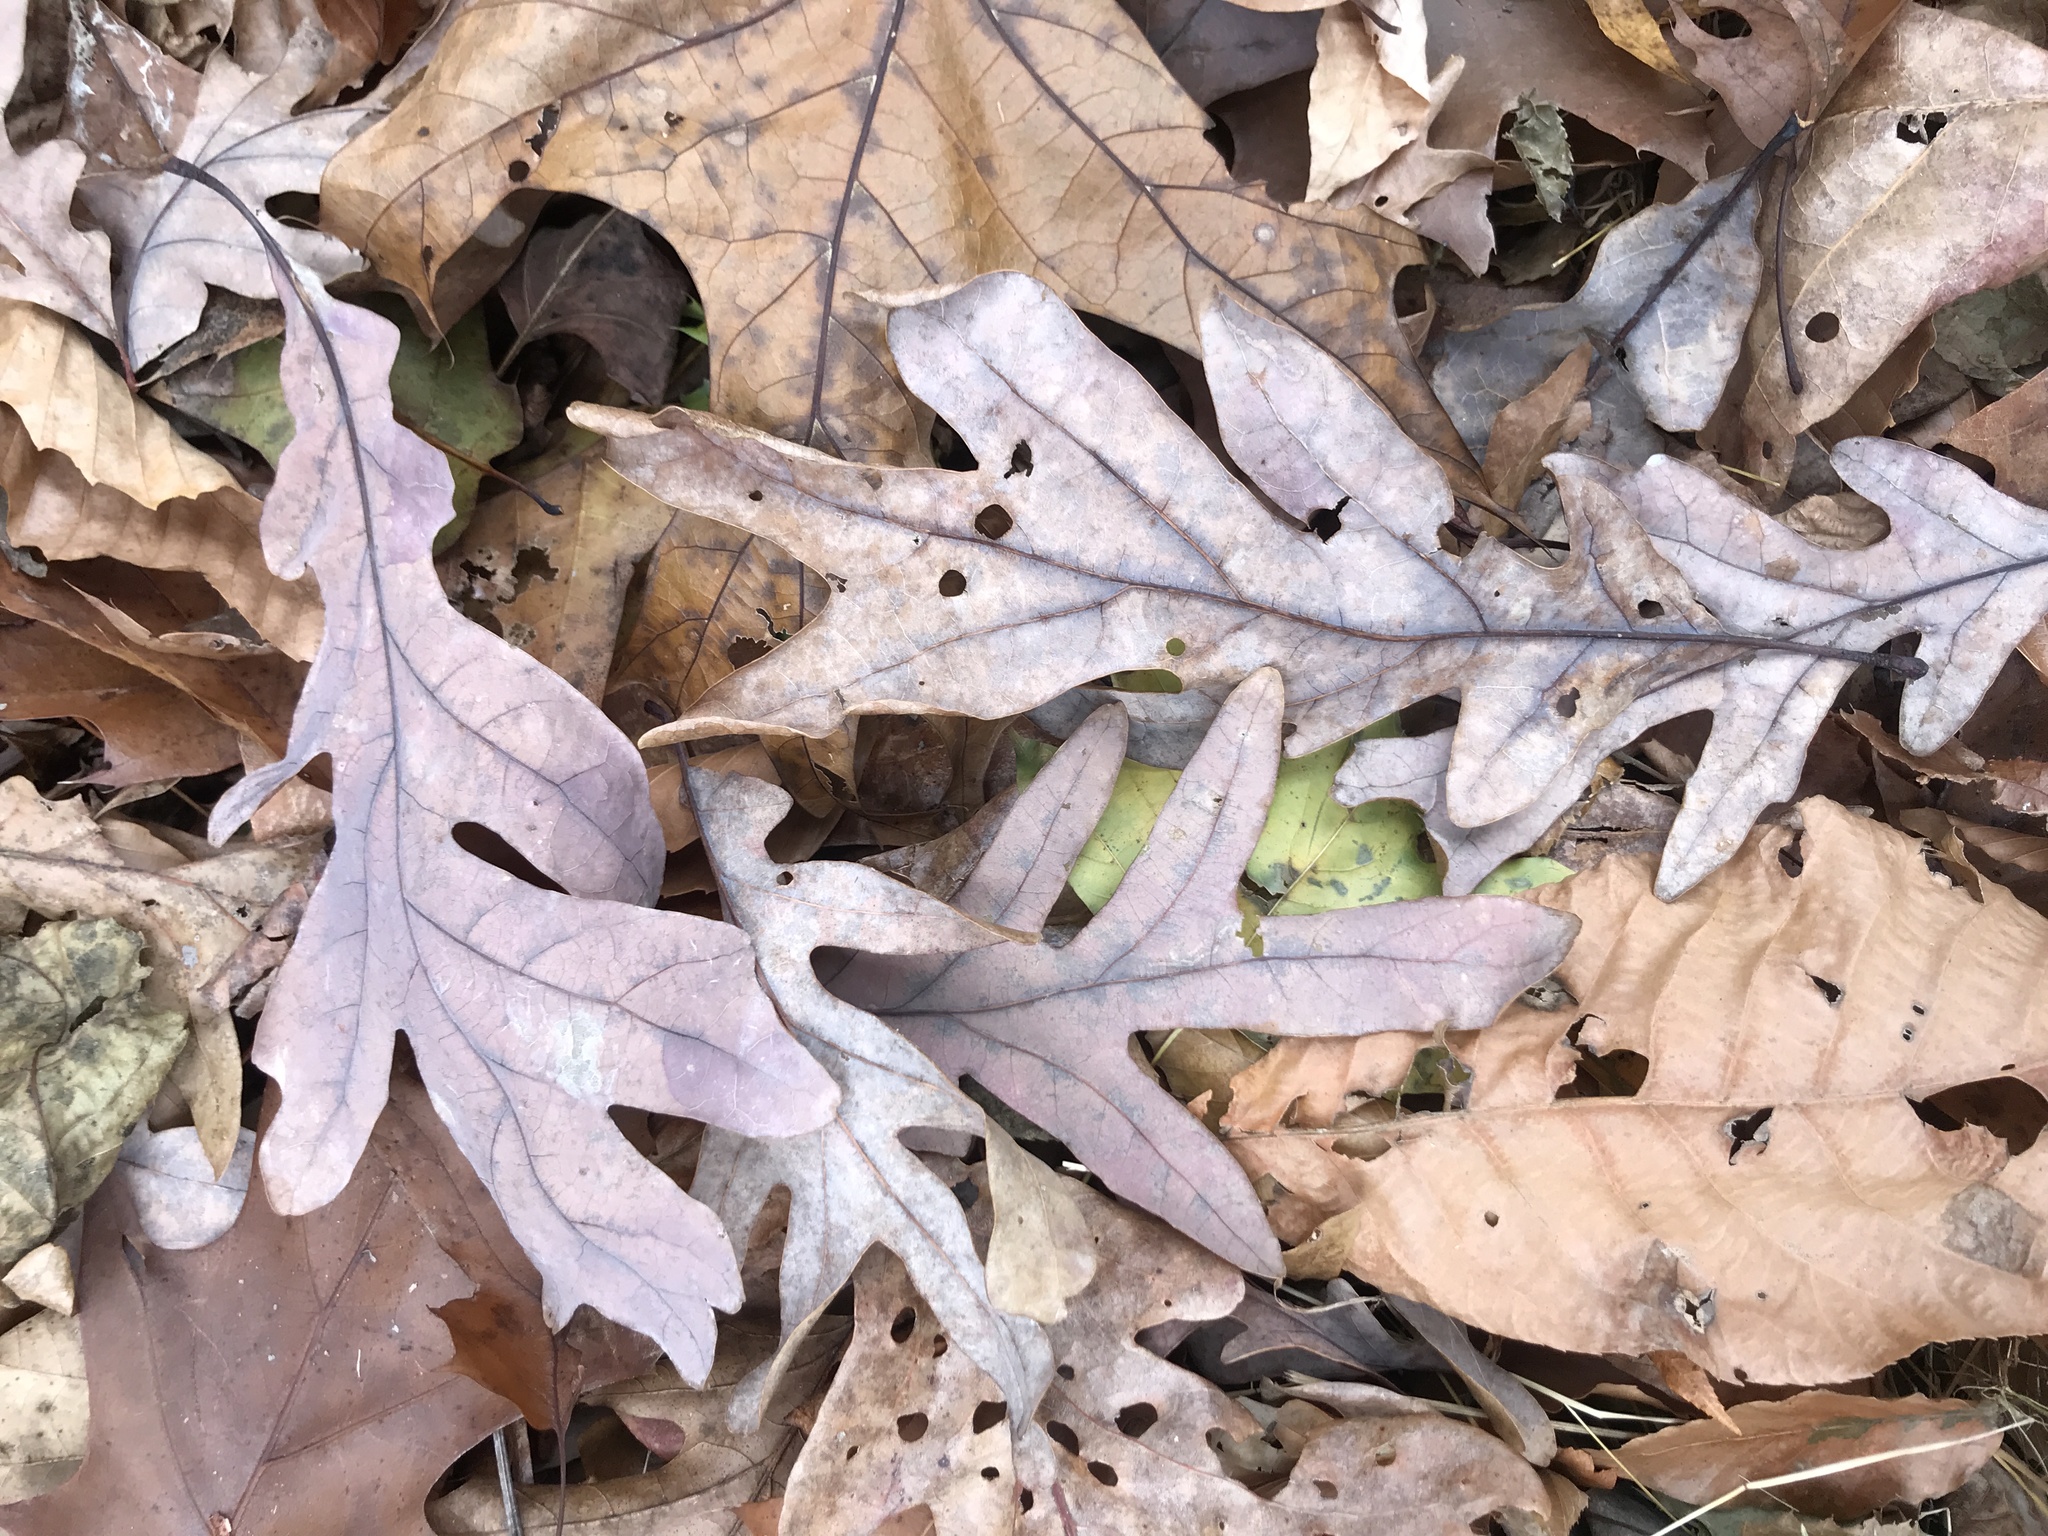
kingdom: Plantae
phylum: Tracheophyta
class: Magnoliopsida
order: Fagales
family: Fagaceae
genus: Quercus
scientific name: Quercus alba
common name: White oak
